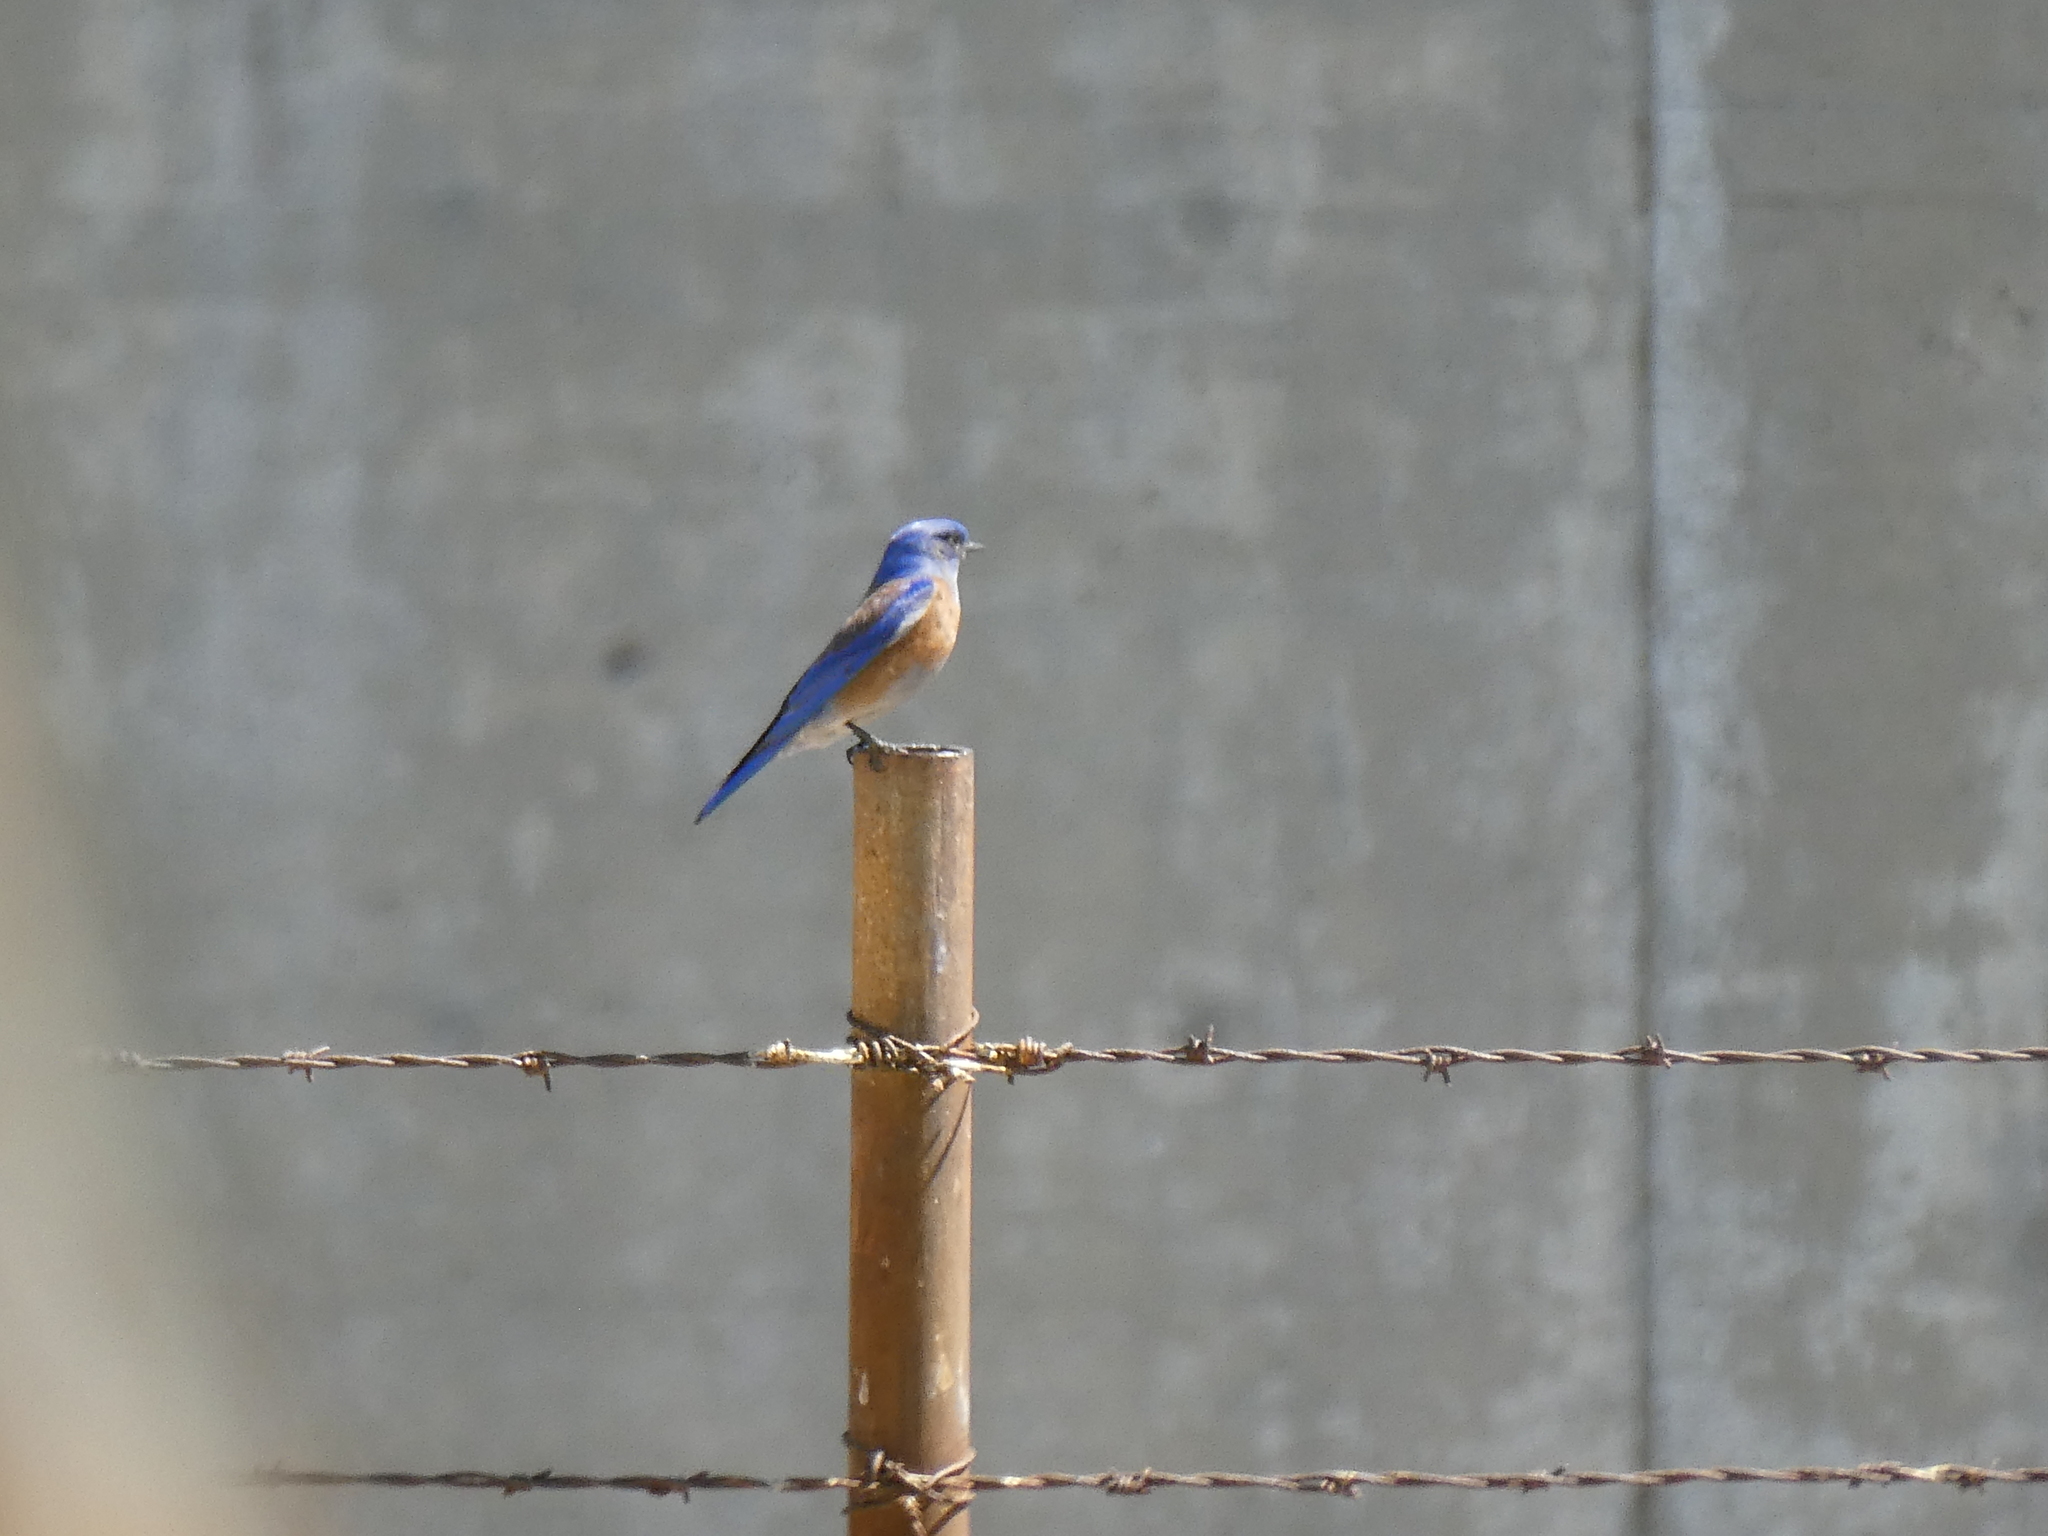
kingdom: Animalia
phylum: Chordata
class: Aves
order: Passeriformes
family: Turdidae
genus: Sialia
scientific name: Sialia mexicana
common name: Western bluebird
